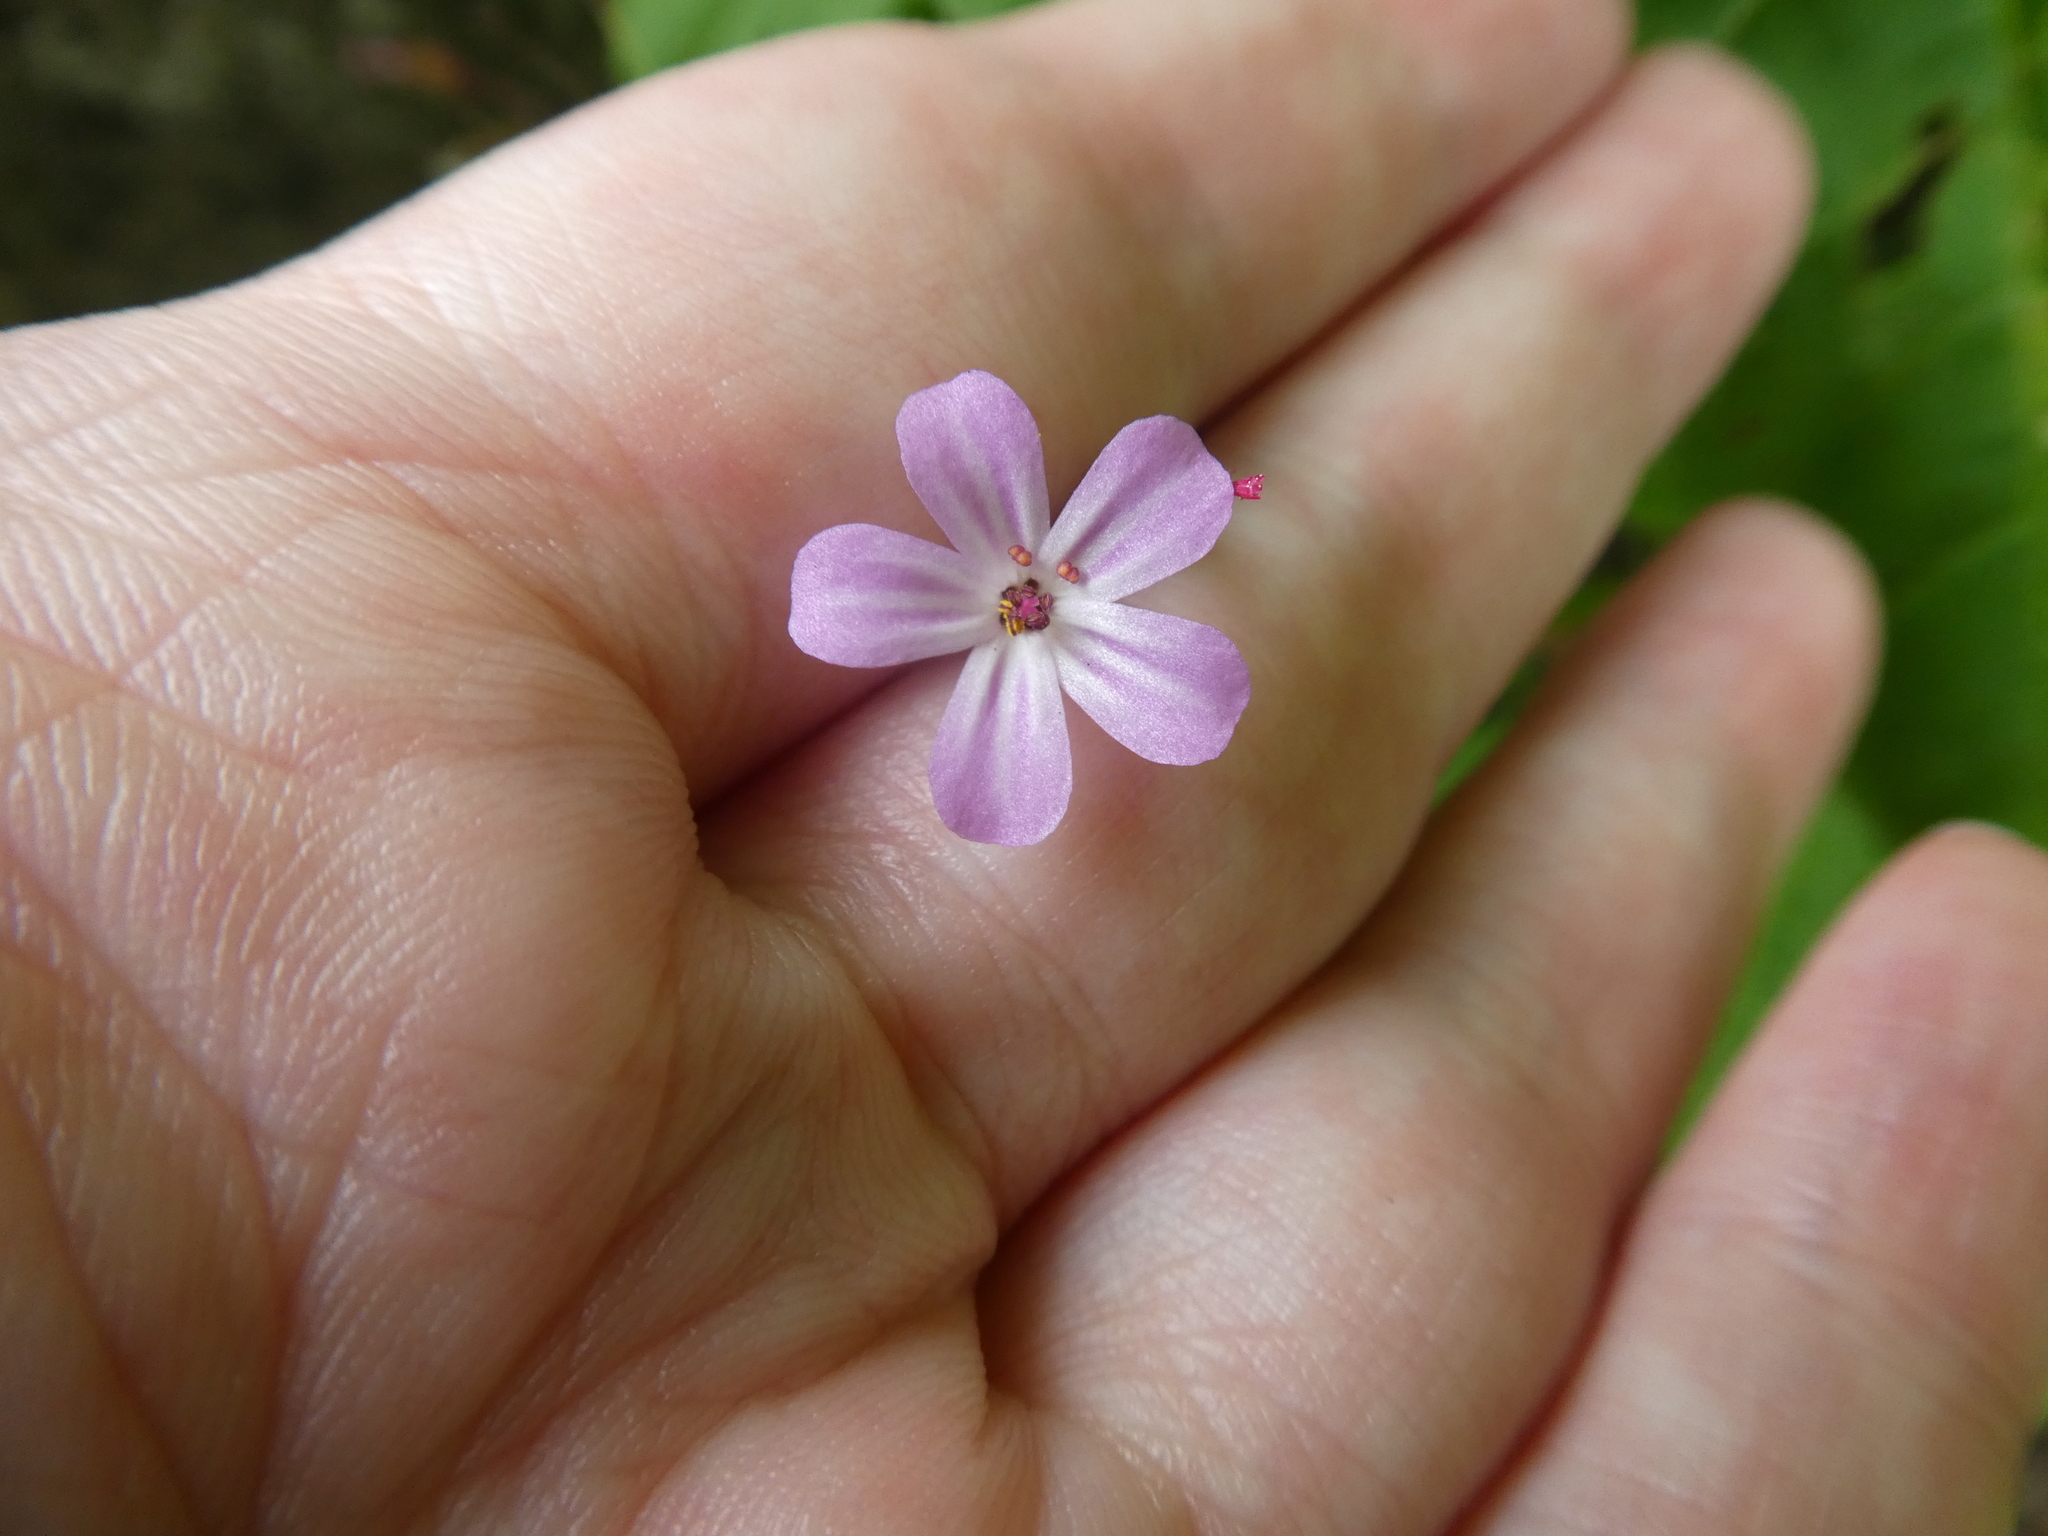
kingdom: Plantae
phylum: Tracheophyta
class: Magnoliopsida
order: Geraniales
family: Geraniaceae
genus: Geranium
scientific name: Geranium robertianum
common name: Herb-robert
